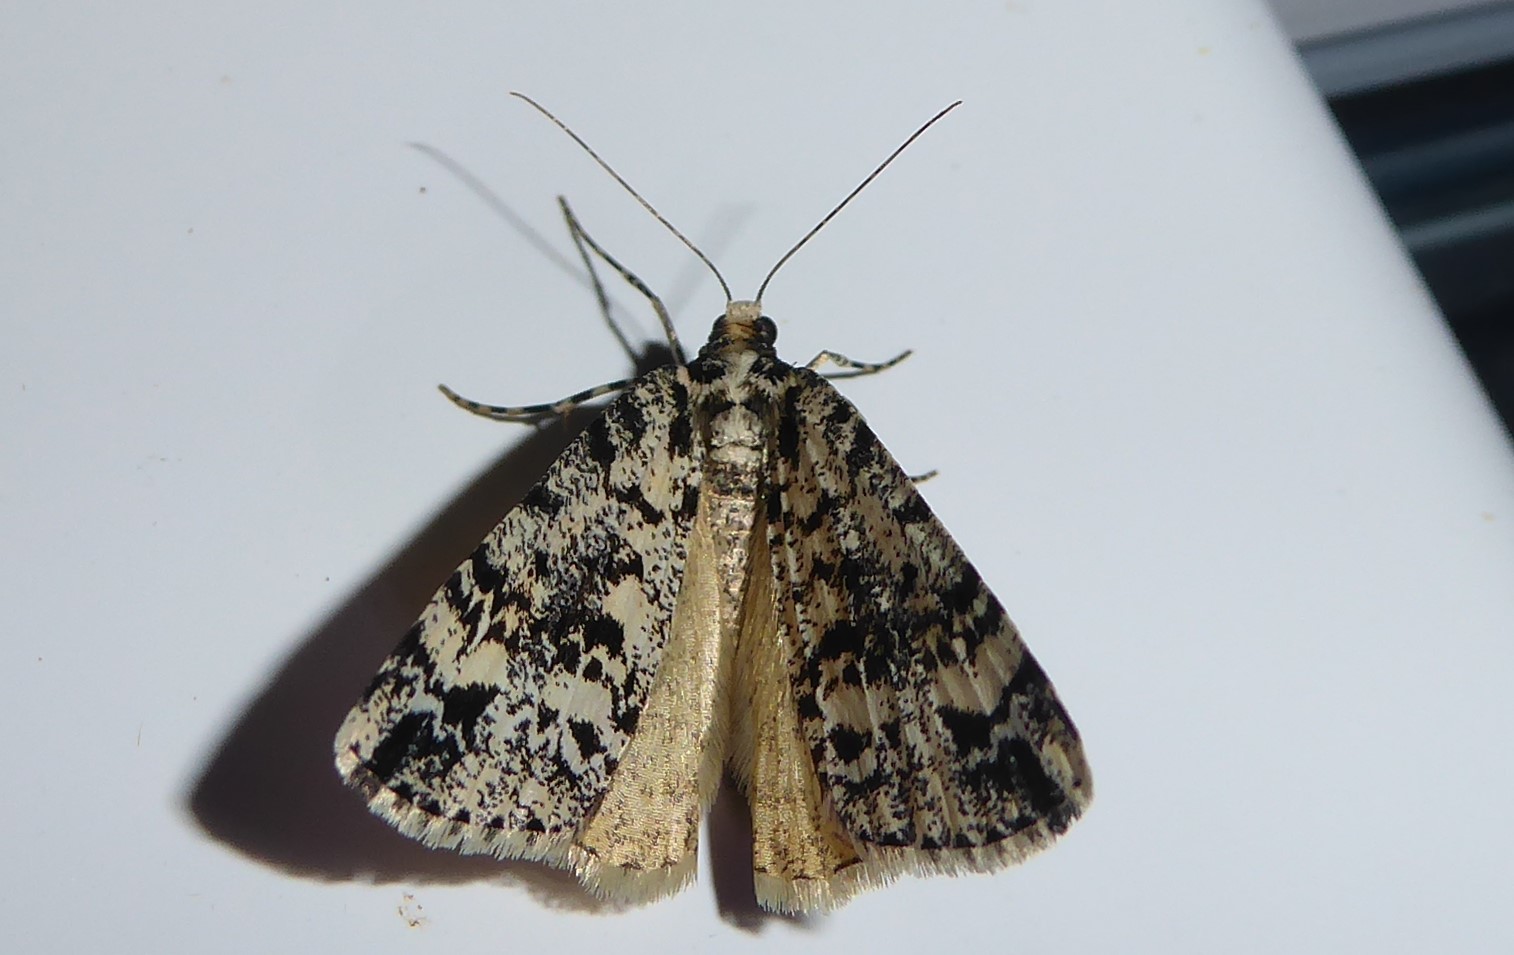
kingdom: Animalia
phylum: Arthropoda
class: Insecta
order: Lepidoptera
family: Geometridae
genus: Pseudocoremia
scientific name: Pseudocoremia leucelaea
